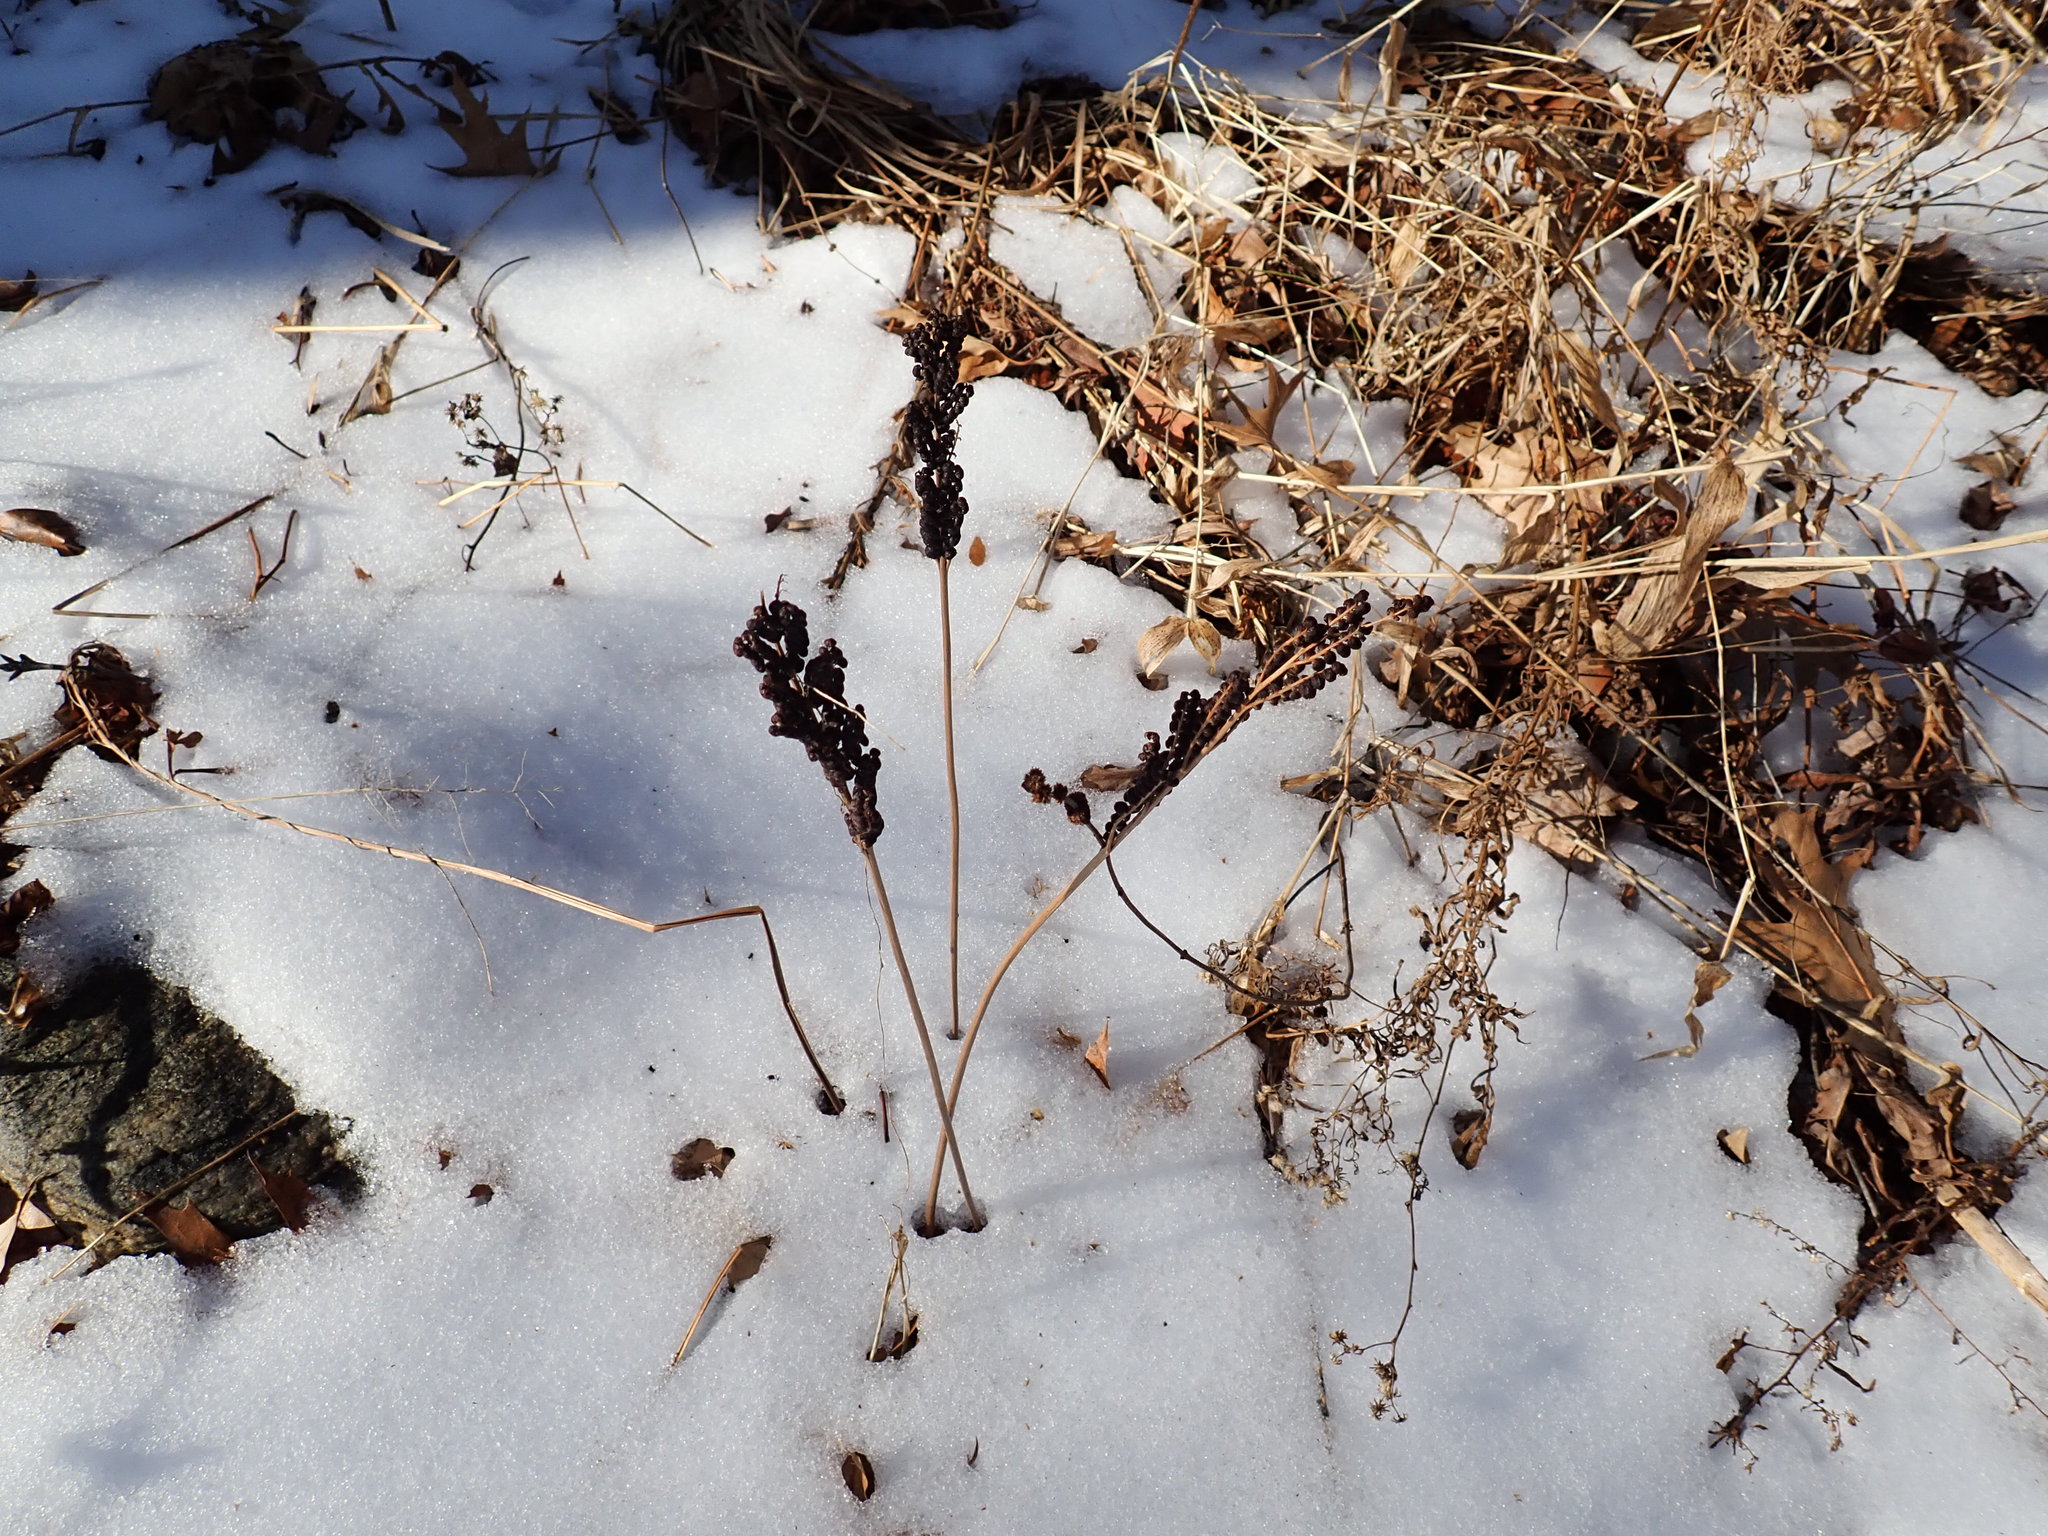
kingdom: Plantae
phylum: Tracheophyta
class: Polypodiopsida
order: Polypodiales
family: Onocleaceae
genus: Onoclea
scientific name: Onoclea sensibilis
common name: Sensitive fern
